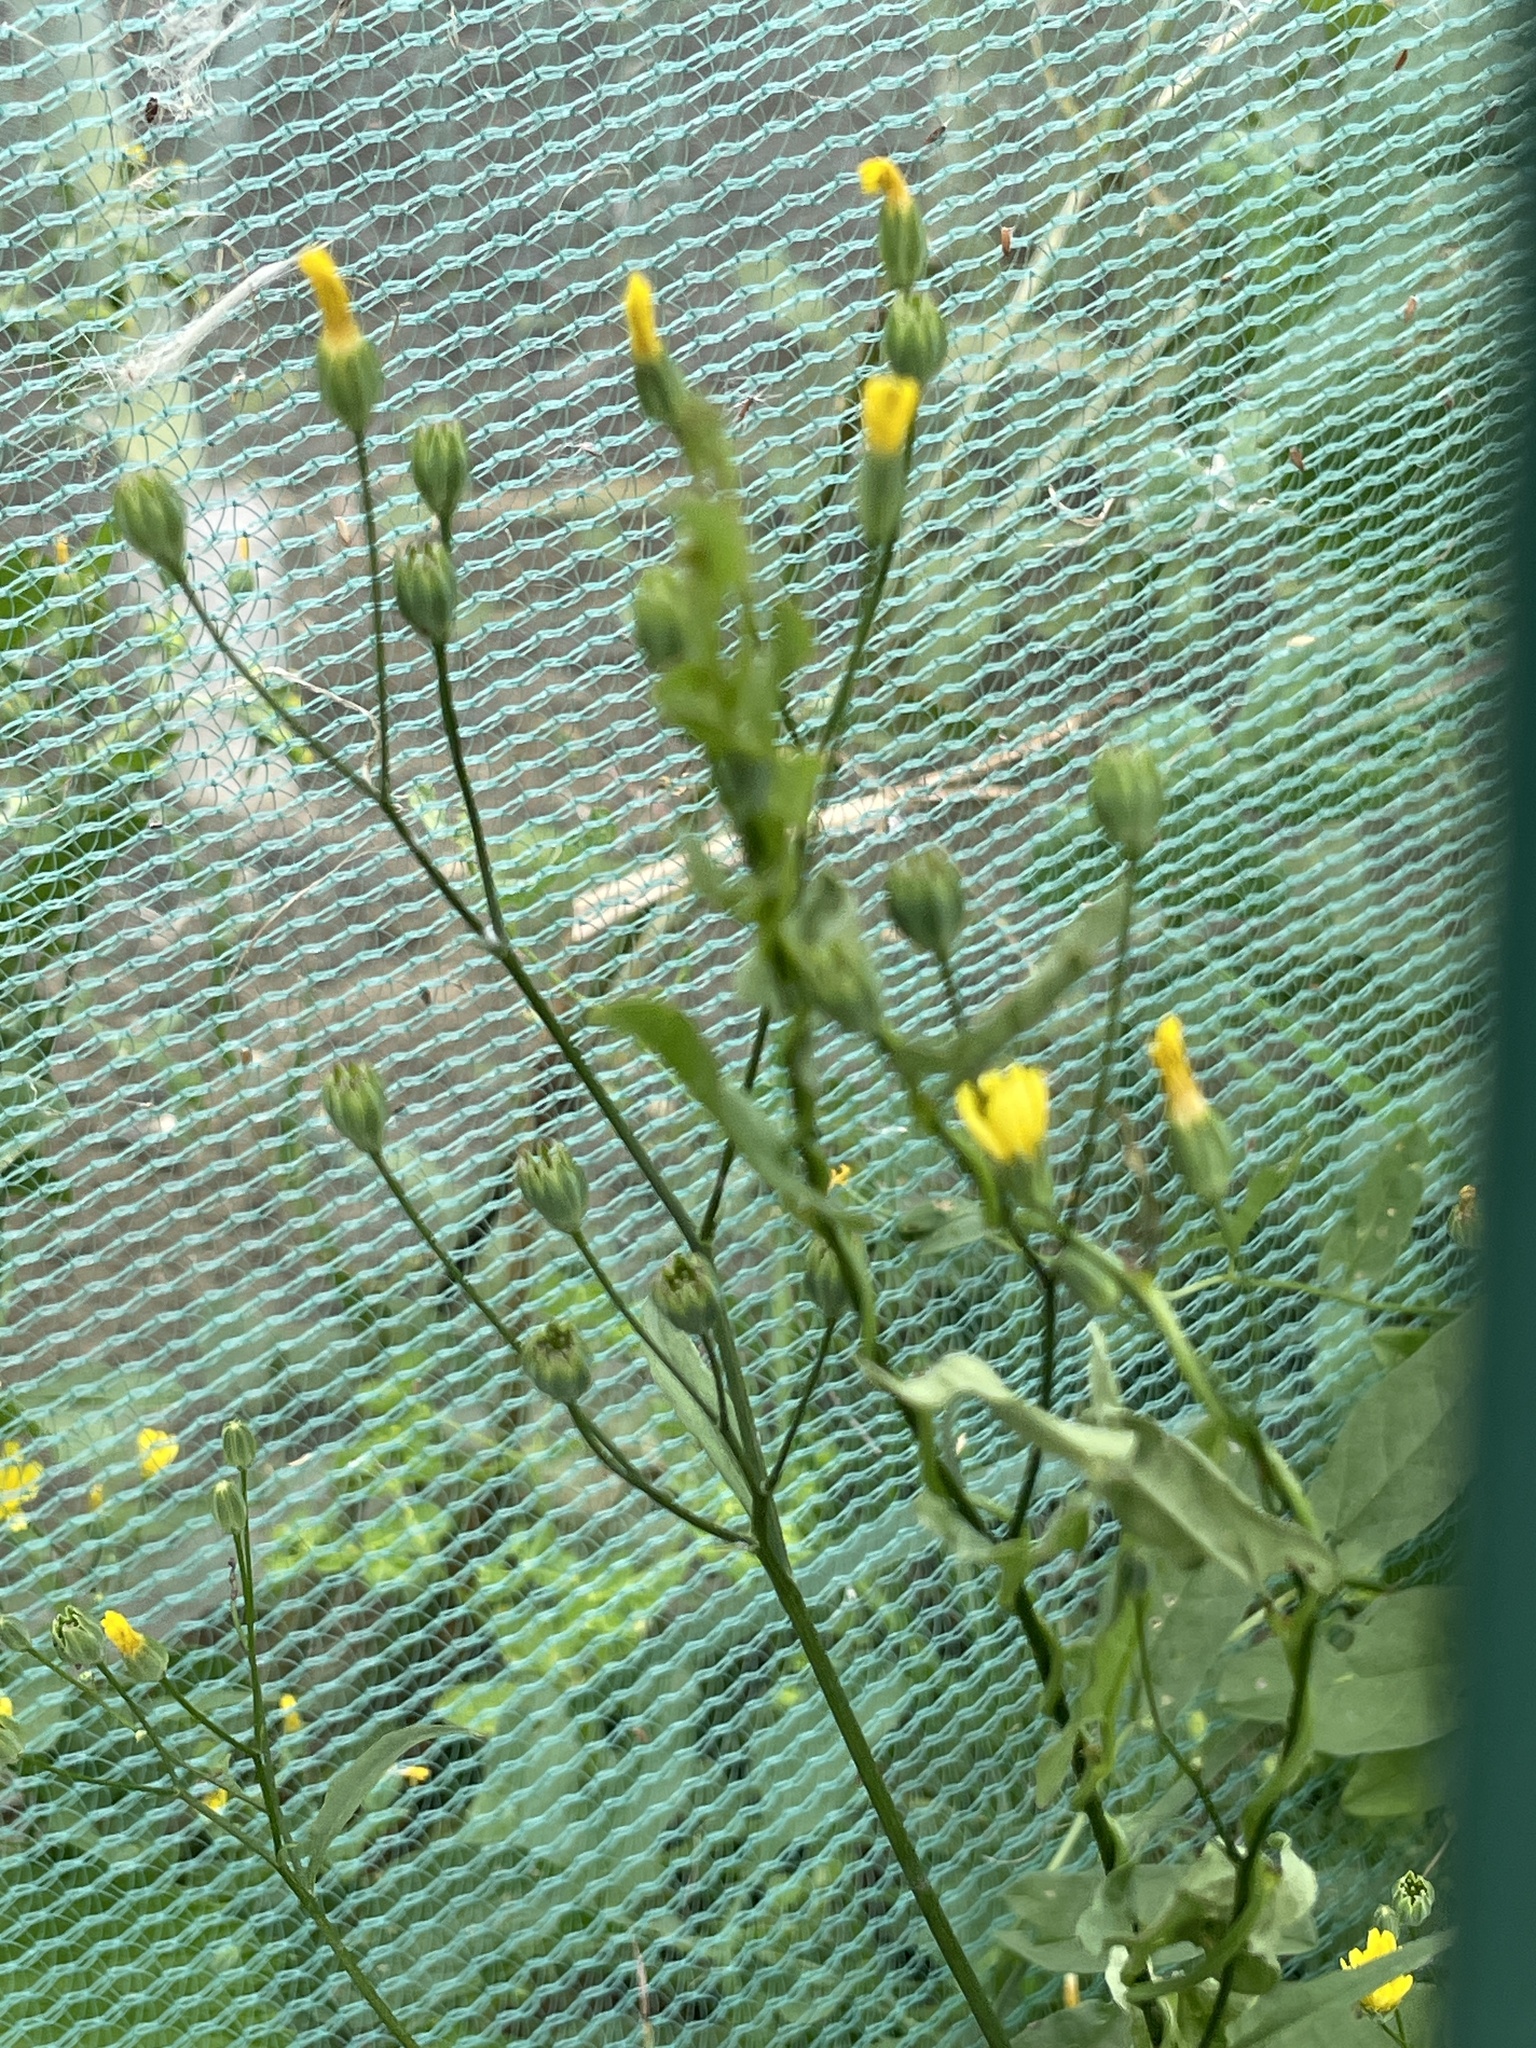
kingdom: Plantae
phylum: Tracheophyta
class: Magnoliopsida
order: Asterales
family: Asteraceae
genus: Lapsana
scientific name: Lapsana communis
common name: Nipplewort
